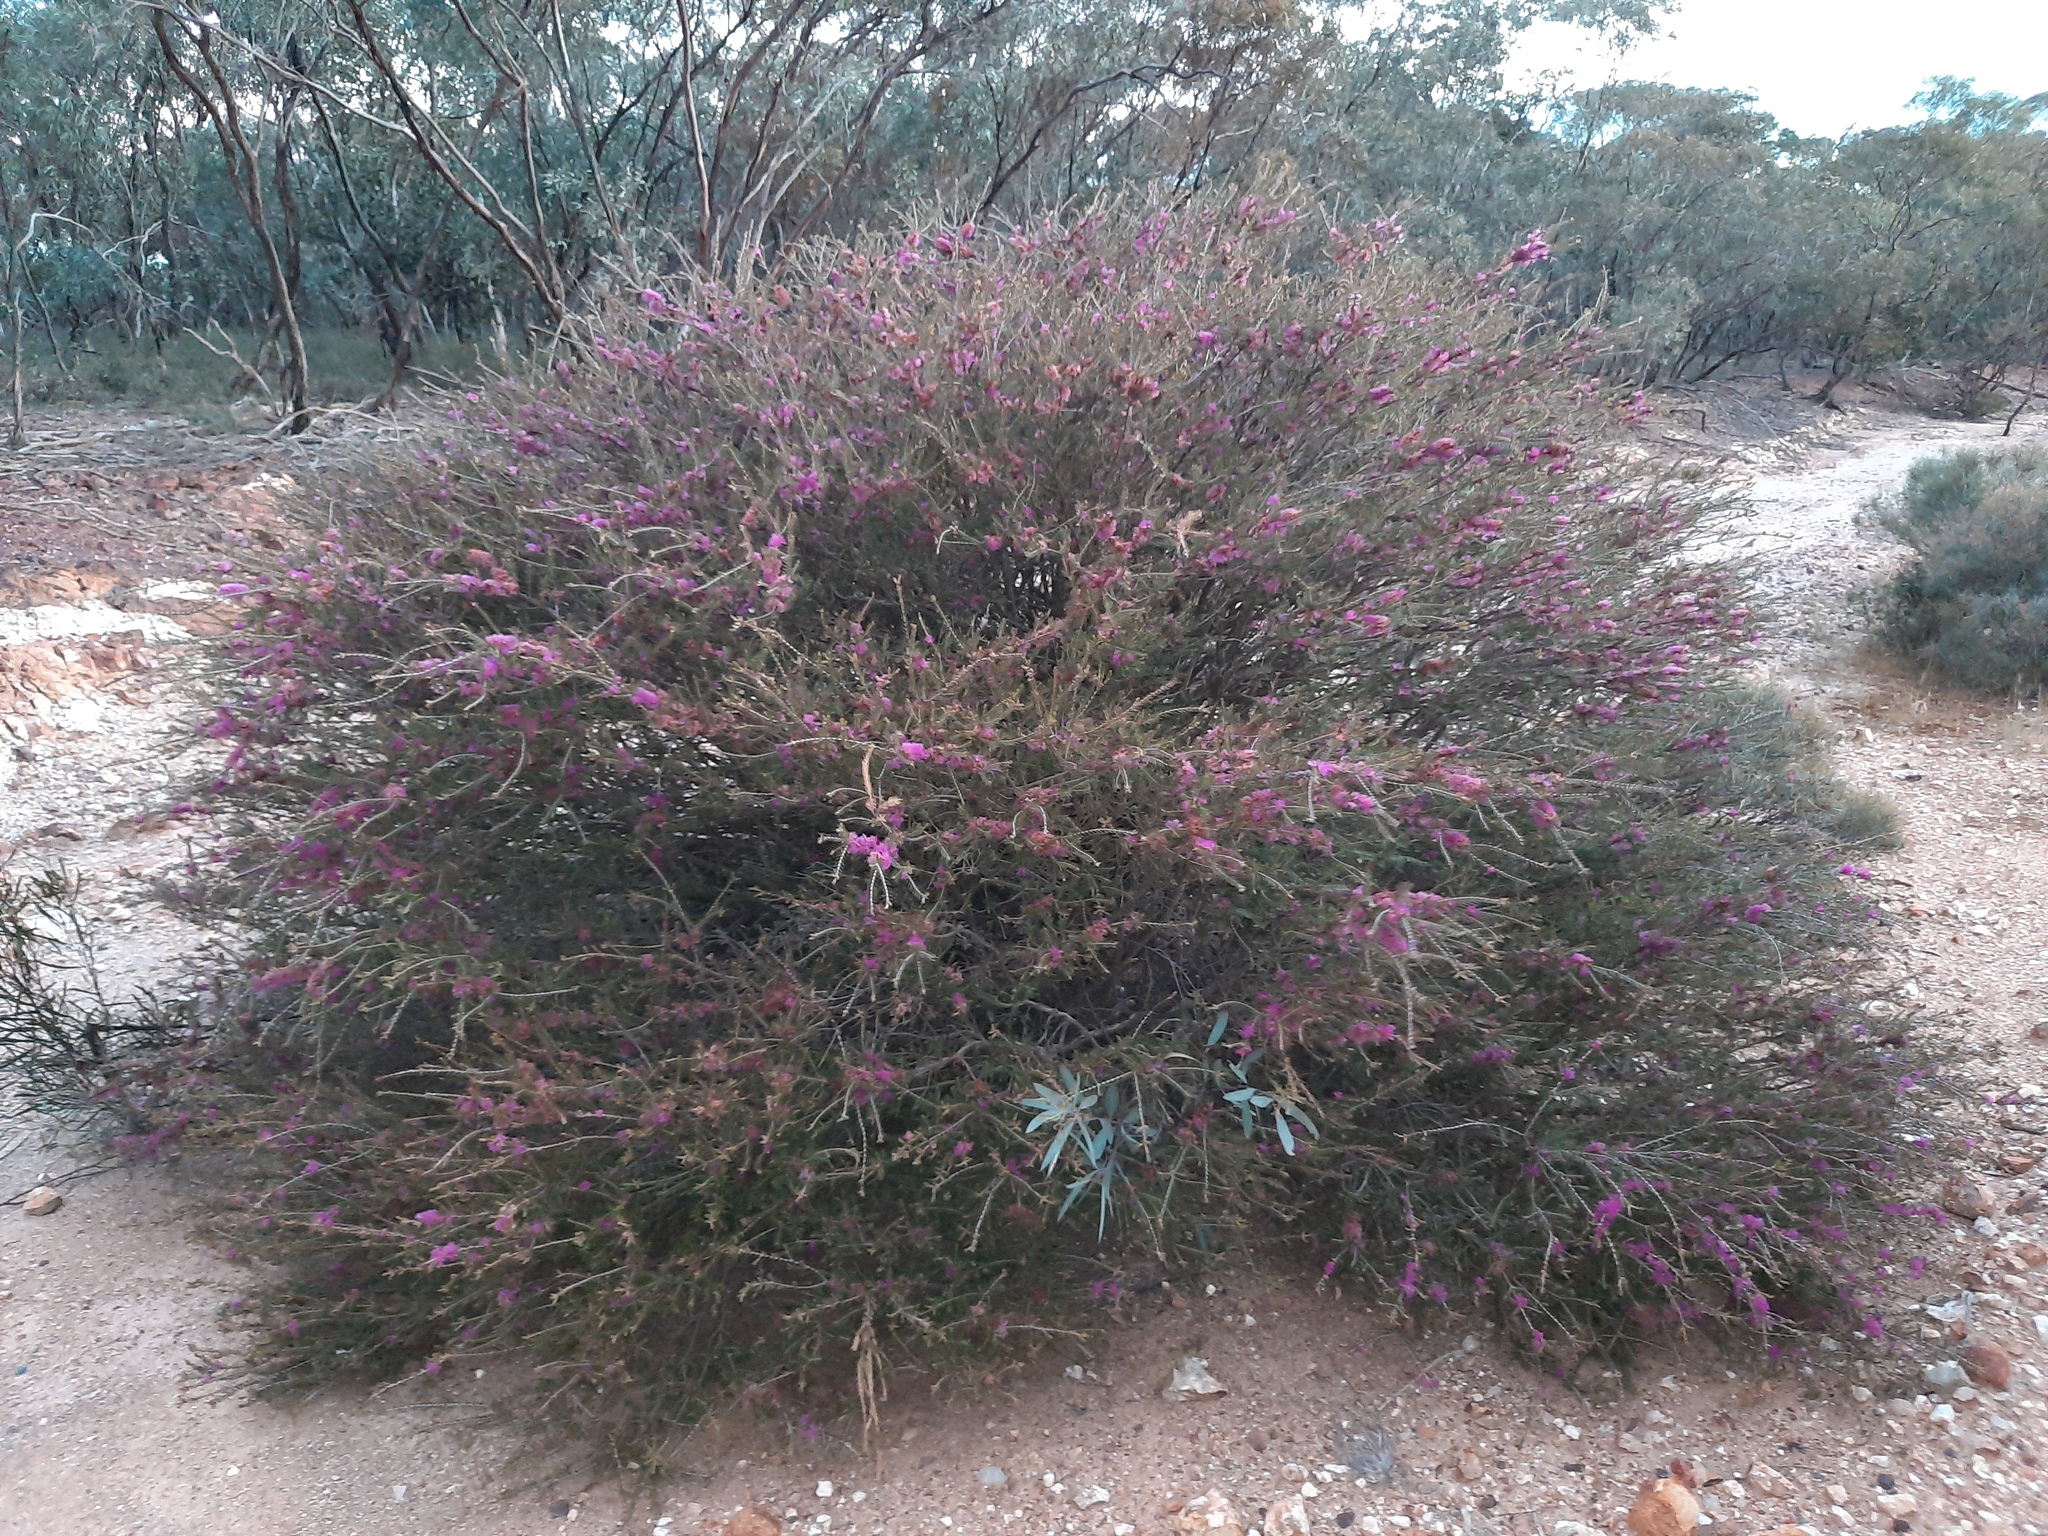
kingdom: Plantae
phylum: Tracheophyta
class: Magnoliopsida
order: Myrtales
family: Myrtaceae
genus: Melaleuca
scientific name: Melaleuca wilsonii
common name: Violet honey myrtle
